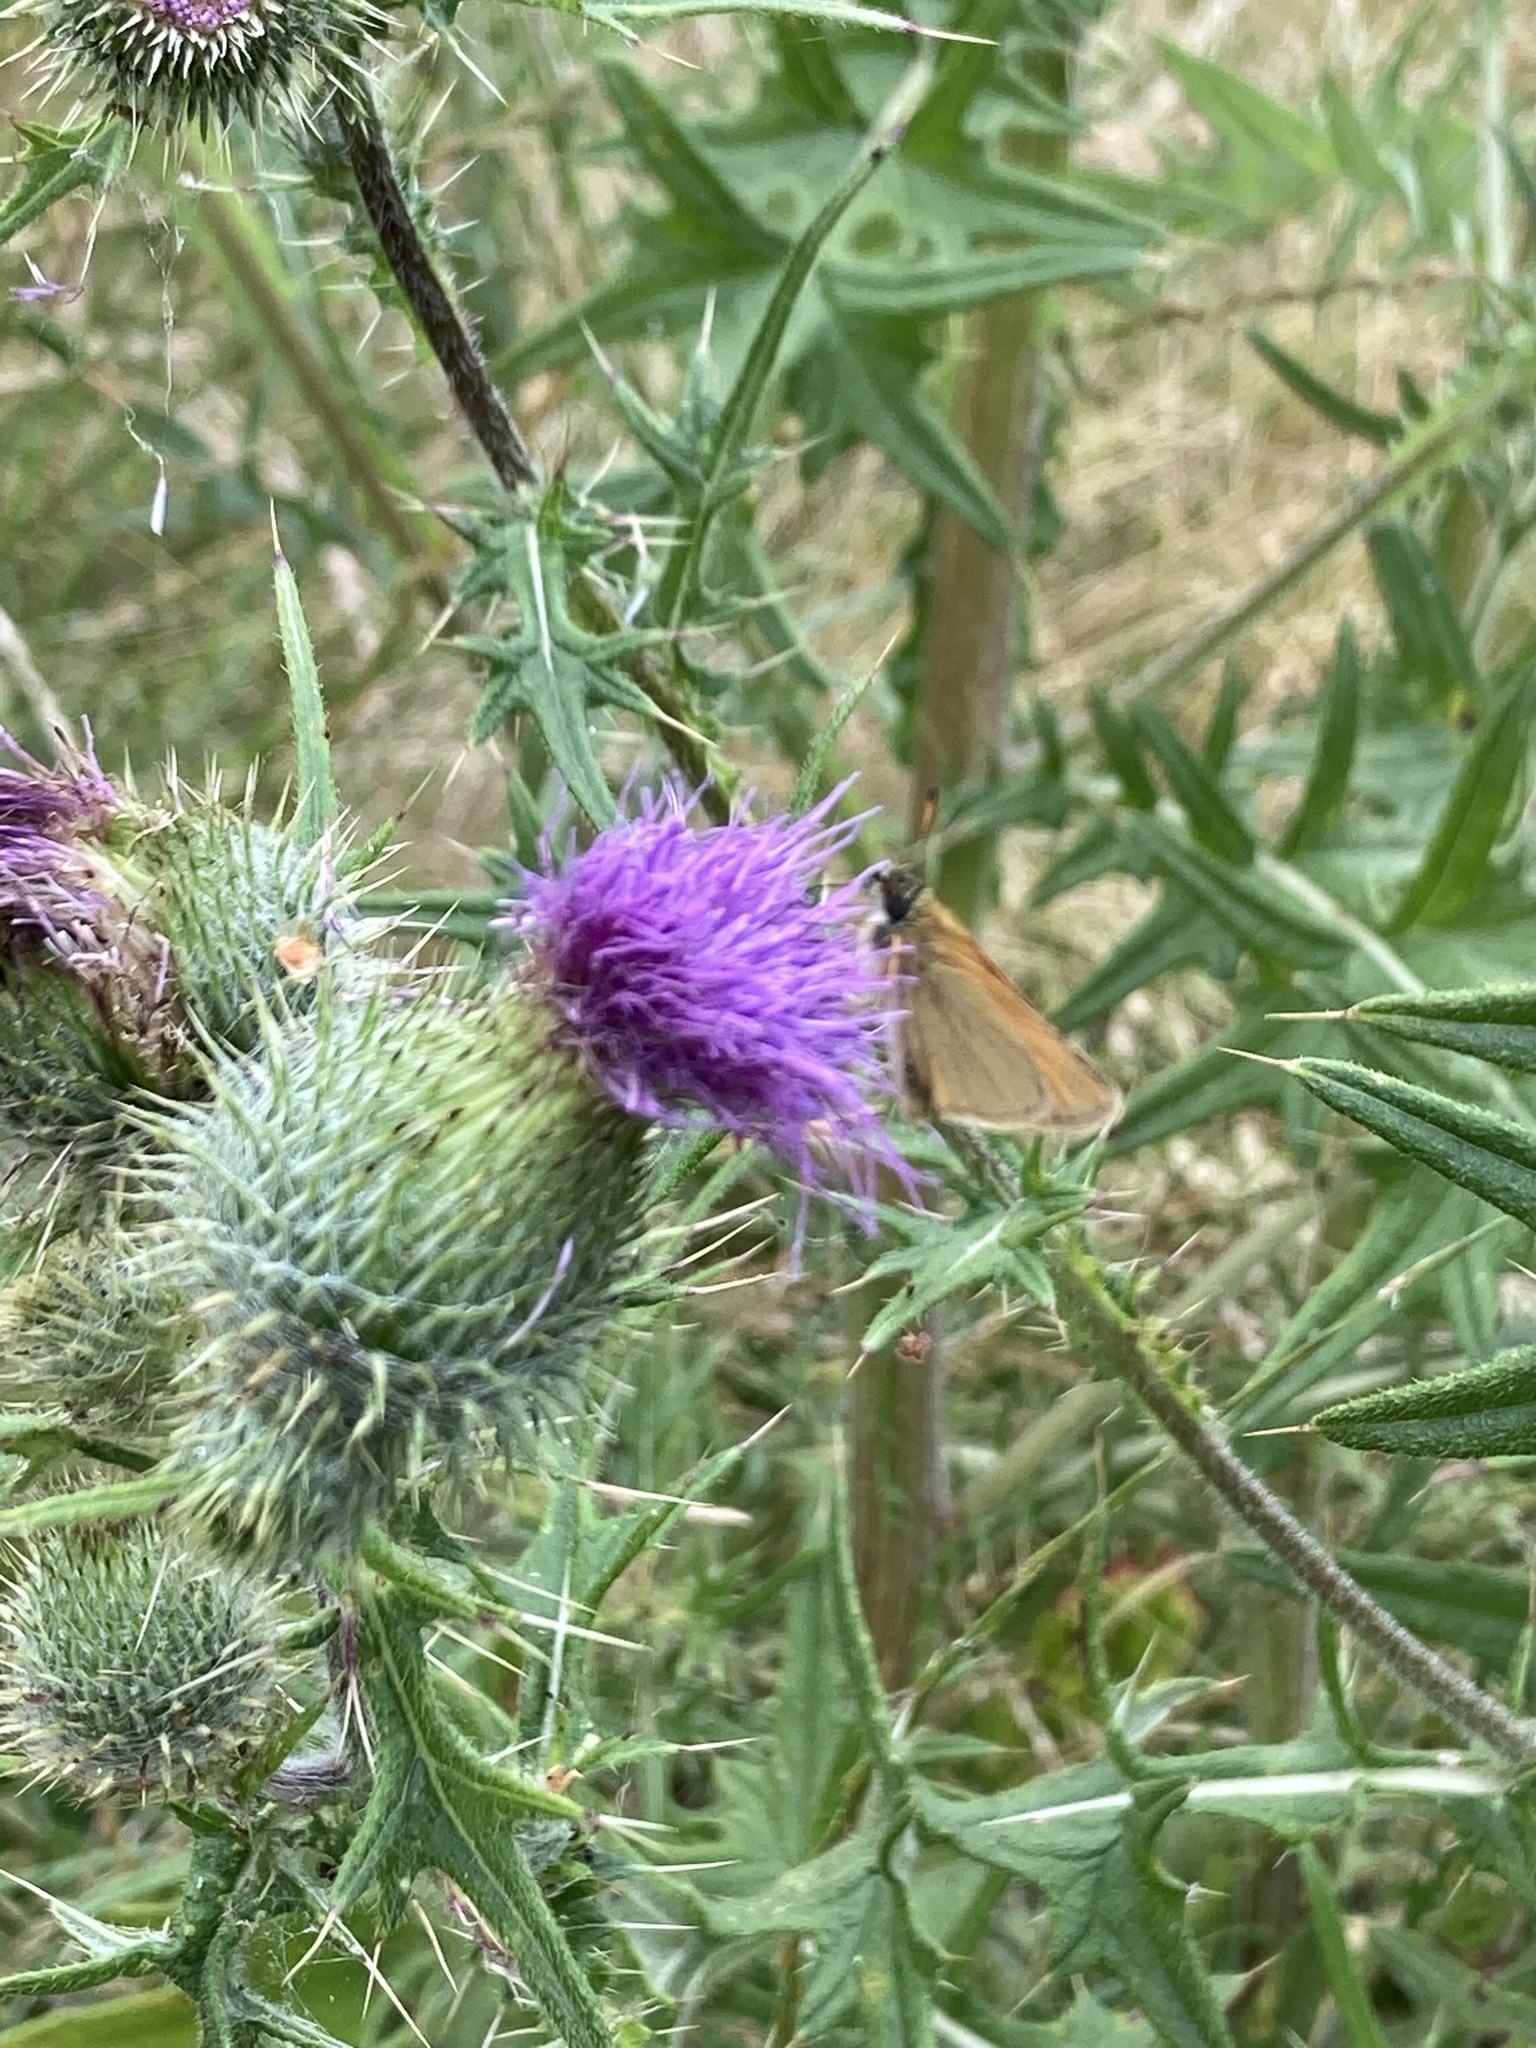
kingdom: Animalia
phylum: Arthropoda
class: Insecta
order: Lepidoptera
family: Hesperiidae
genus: Thymelicus
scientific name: Thymelicus lineola
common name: Essex skipper
